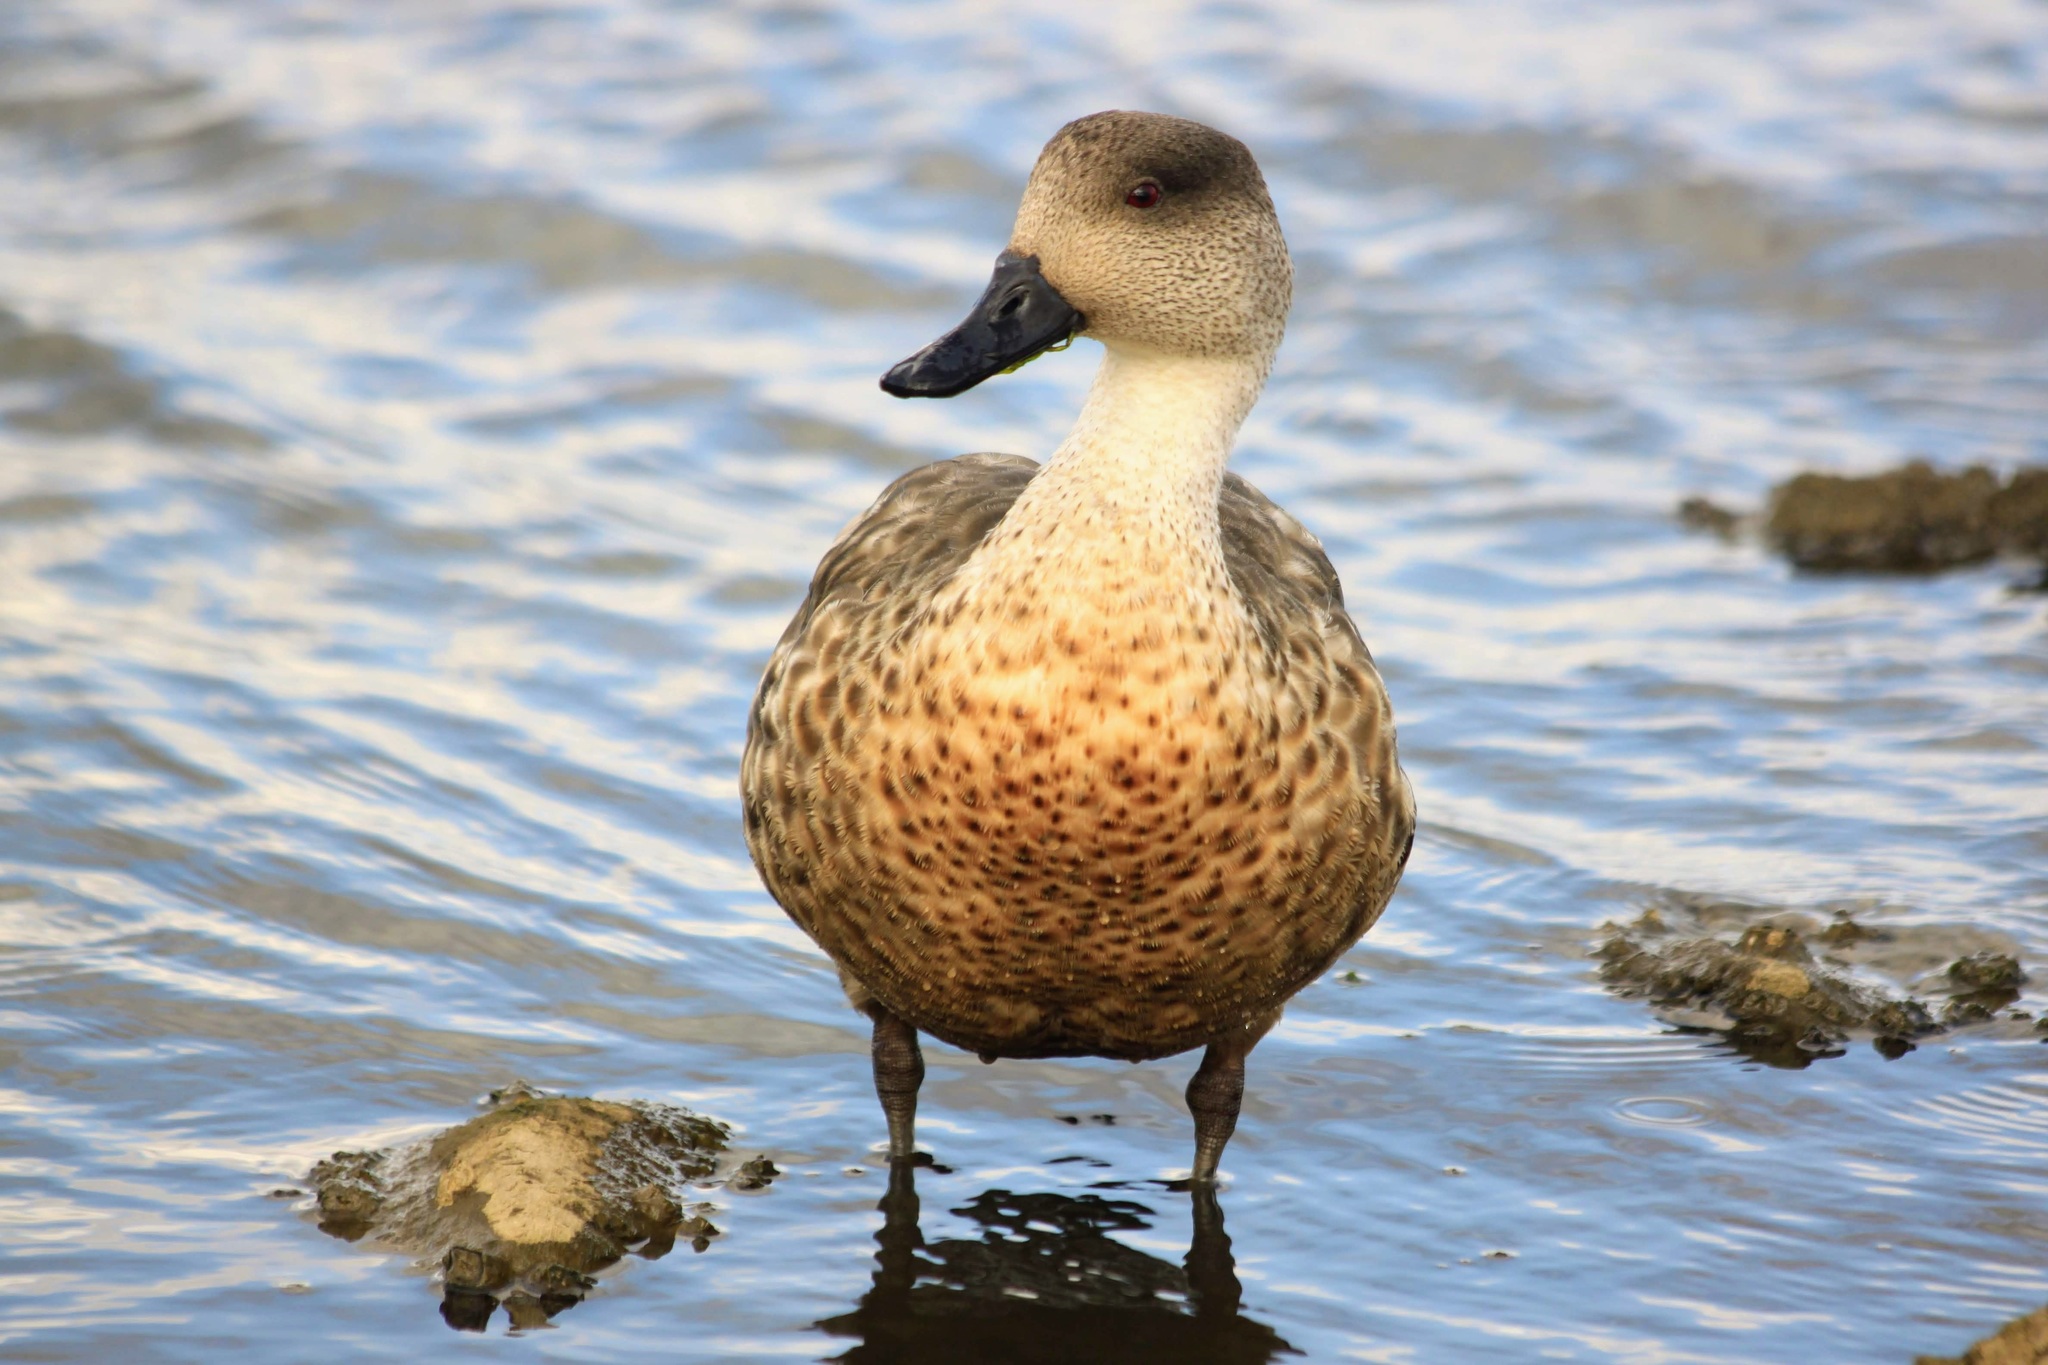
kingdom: Animalia
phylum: Chordata
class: Aves
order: Anseriformes
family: Anatidae
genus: Lophonetta
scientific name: Lophonetta specularioides
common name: Crested duck
